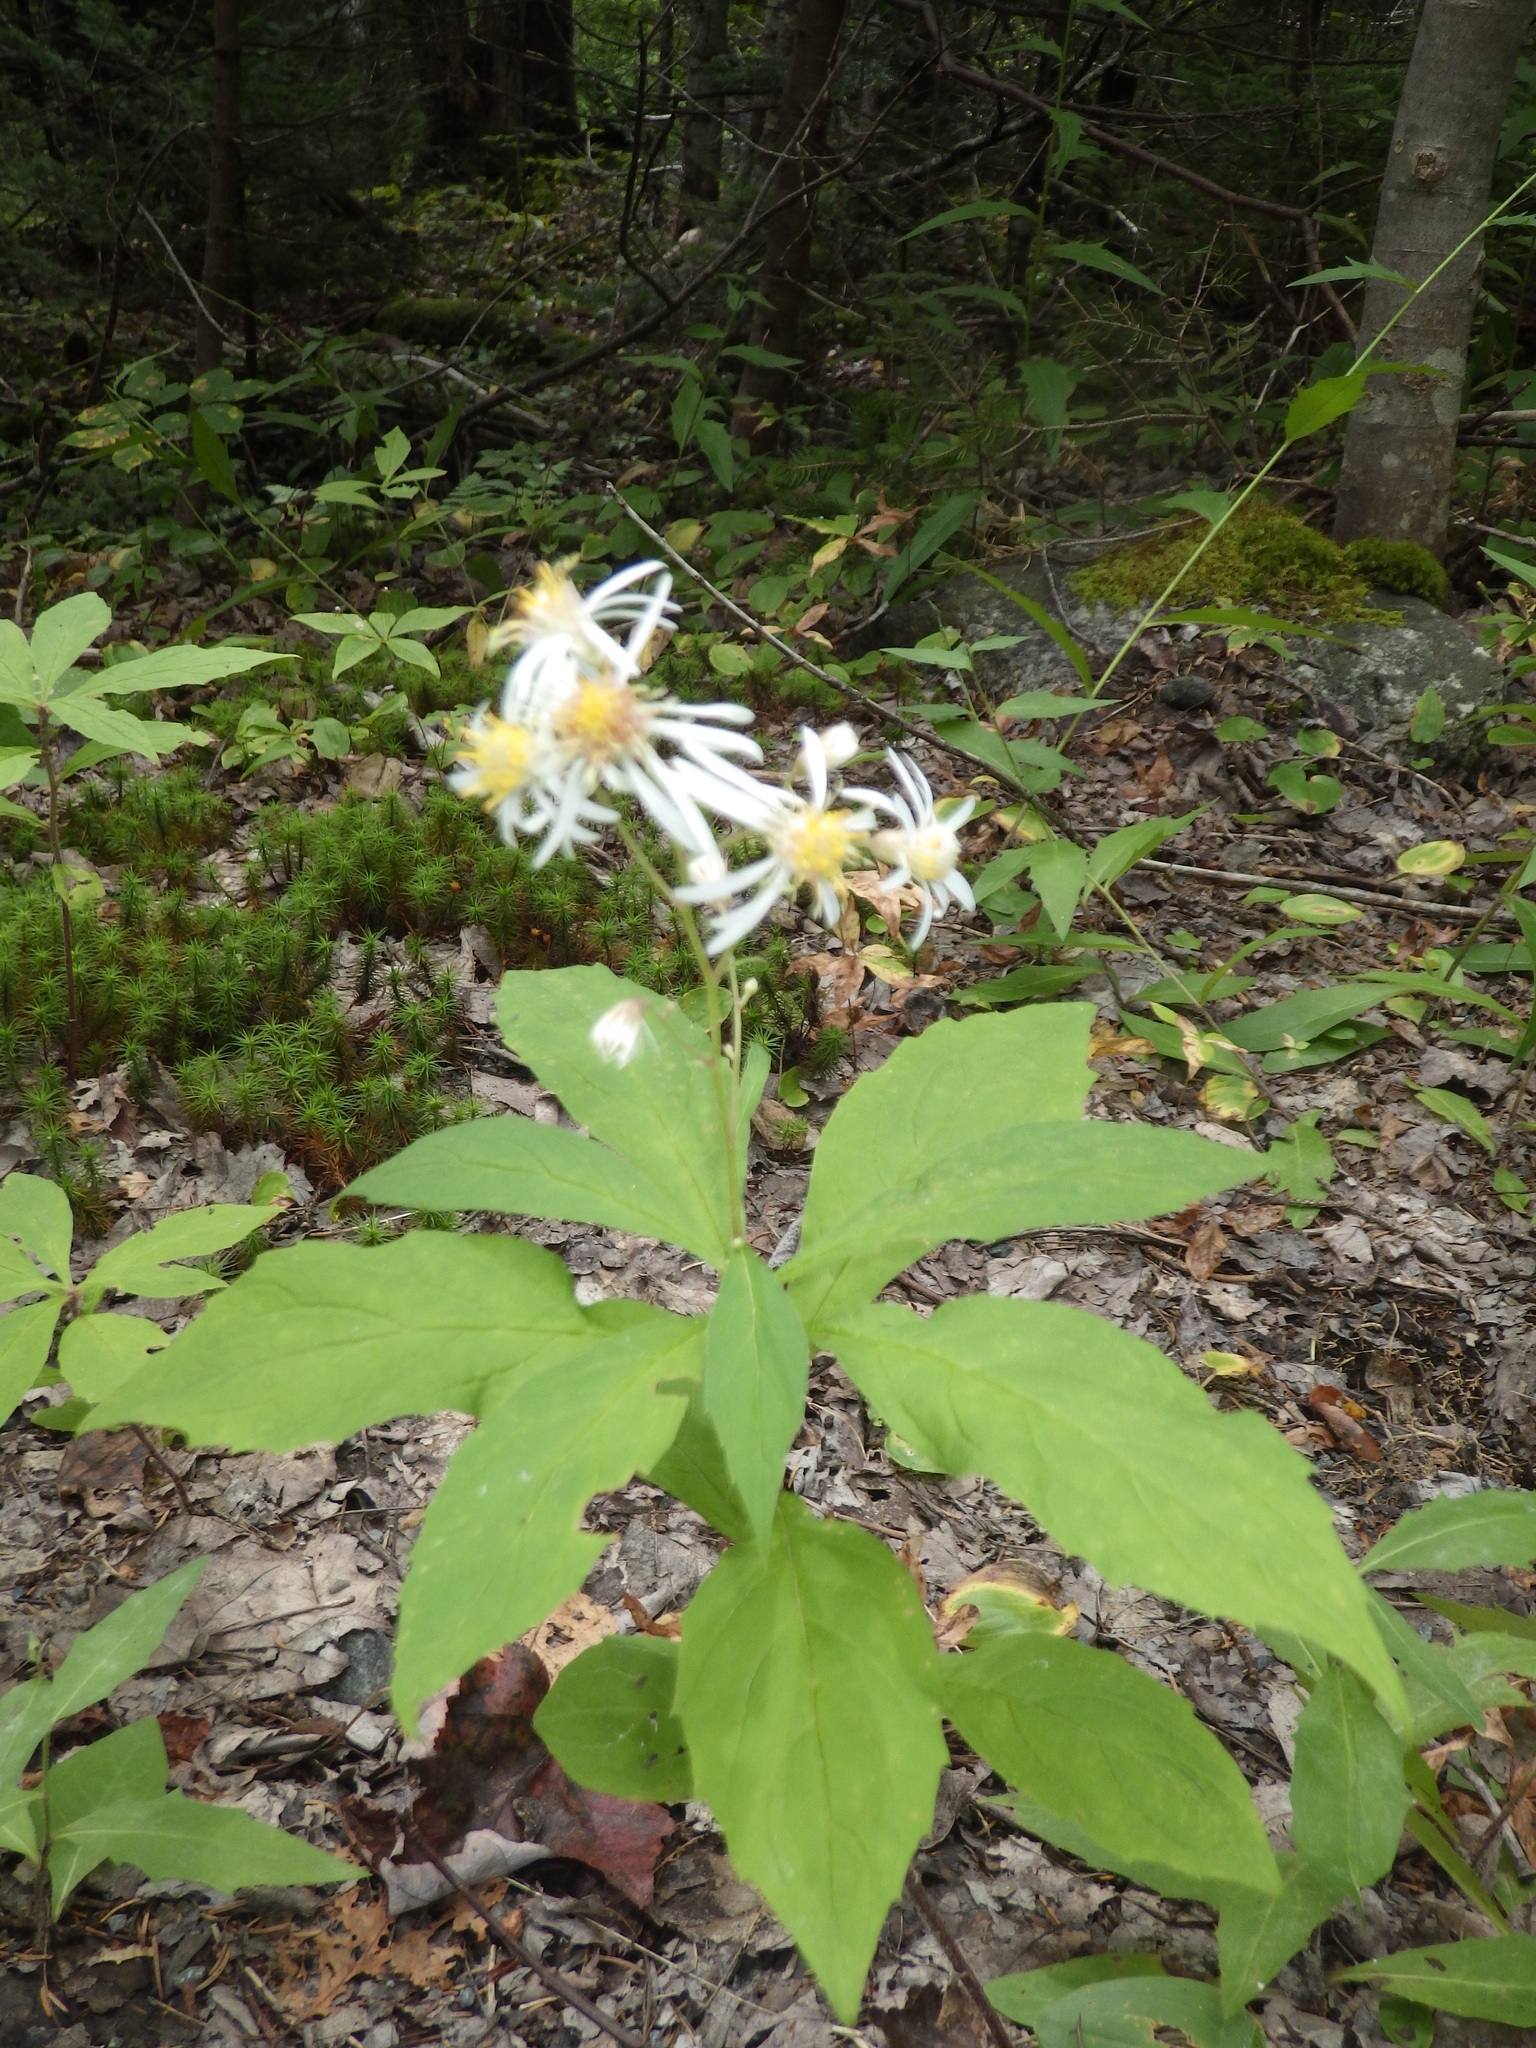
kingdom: Plantae
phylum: Tracheophyta
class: Magnoliopsida
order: Asterales
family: Asteraceae
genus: Oclemena
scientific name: Oclemena acuminata
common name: Mountain aster
